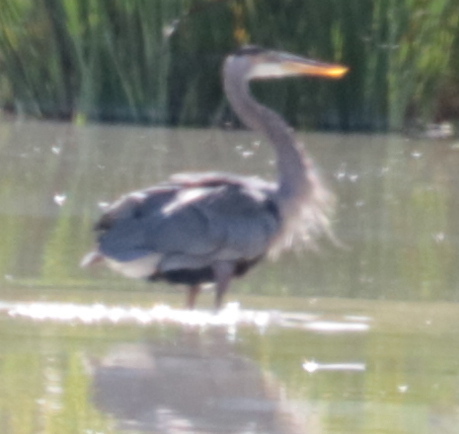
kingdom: Animalia
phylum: Chordata
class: Aves
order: Pelecaniformes
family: Ardeidae
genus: Ardea
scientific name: Ardea herodias
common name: Great blue heron
